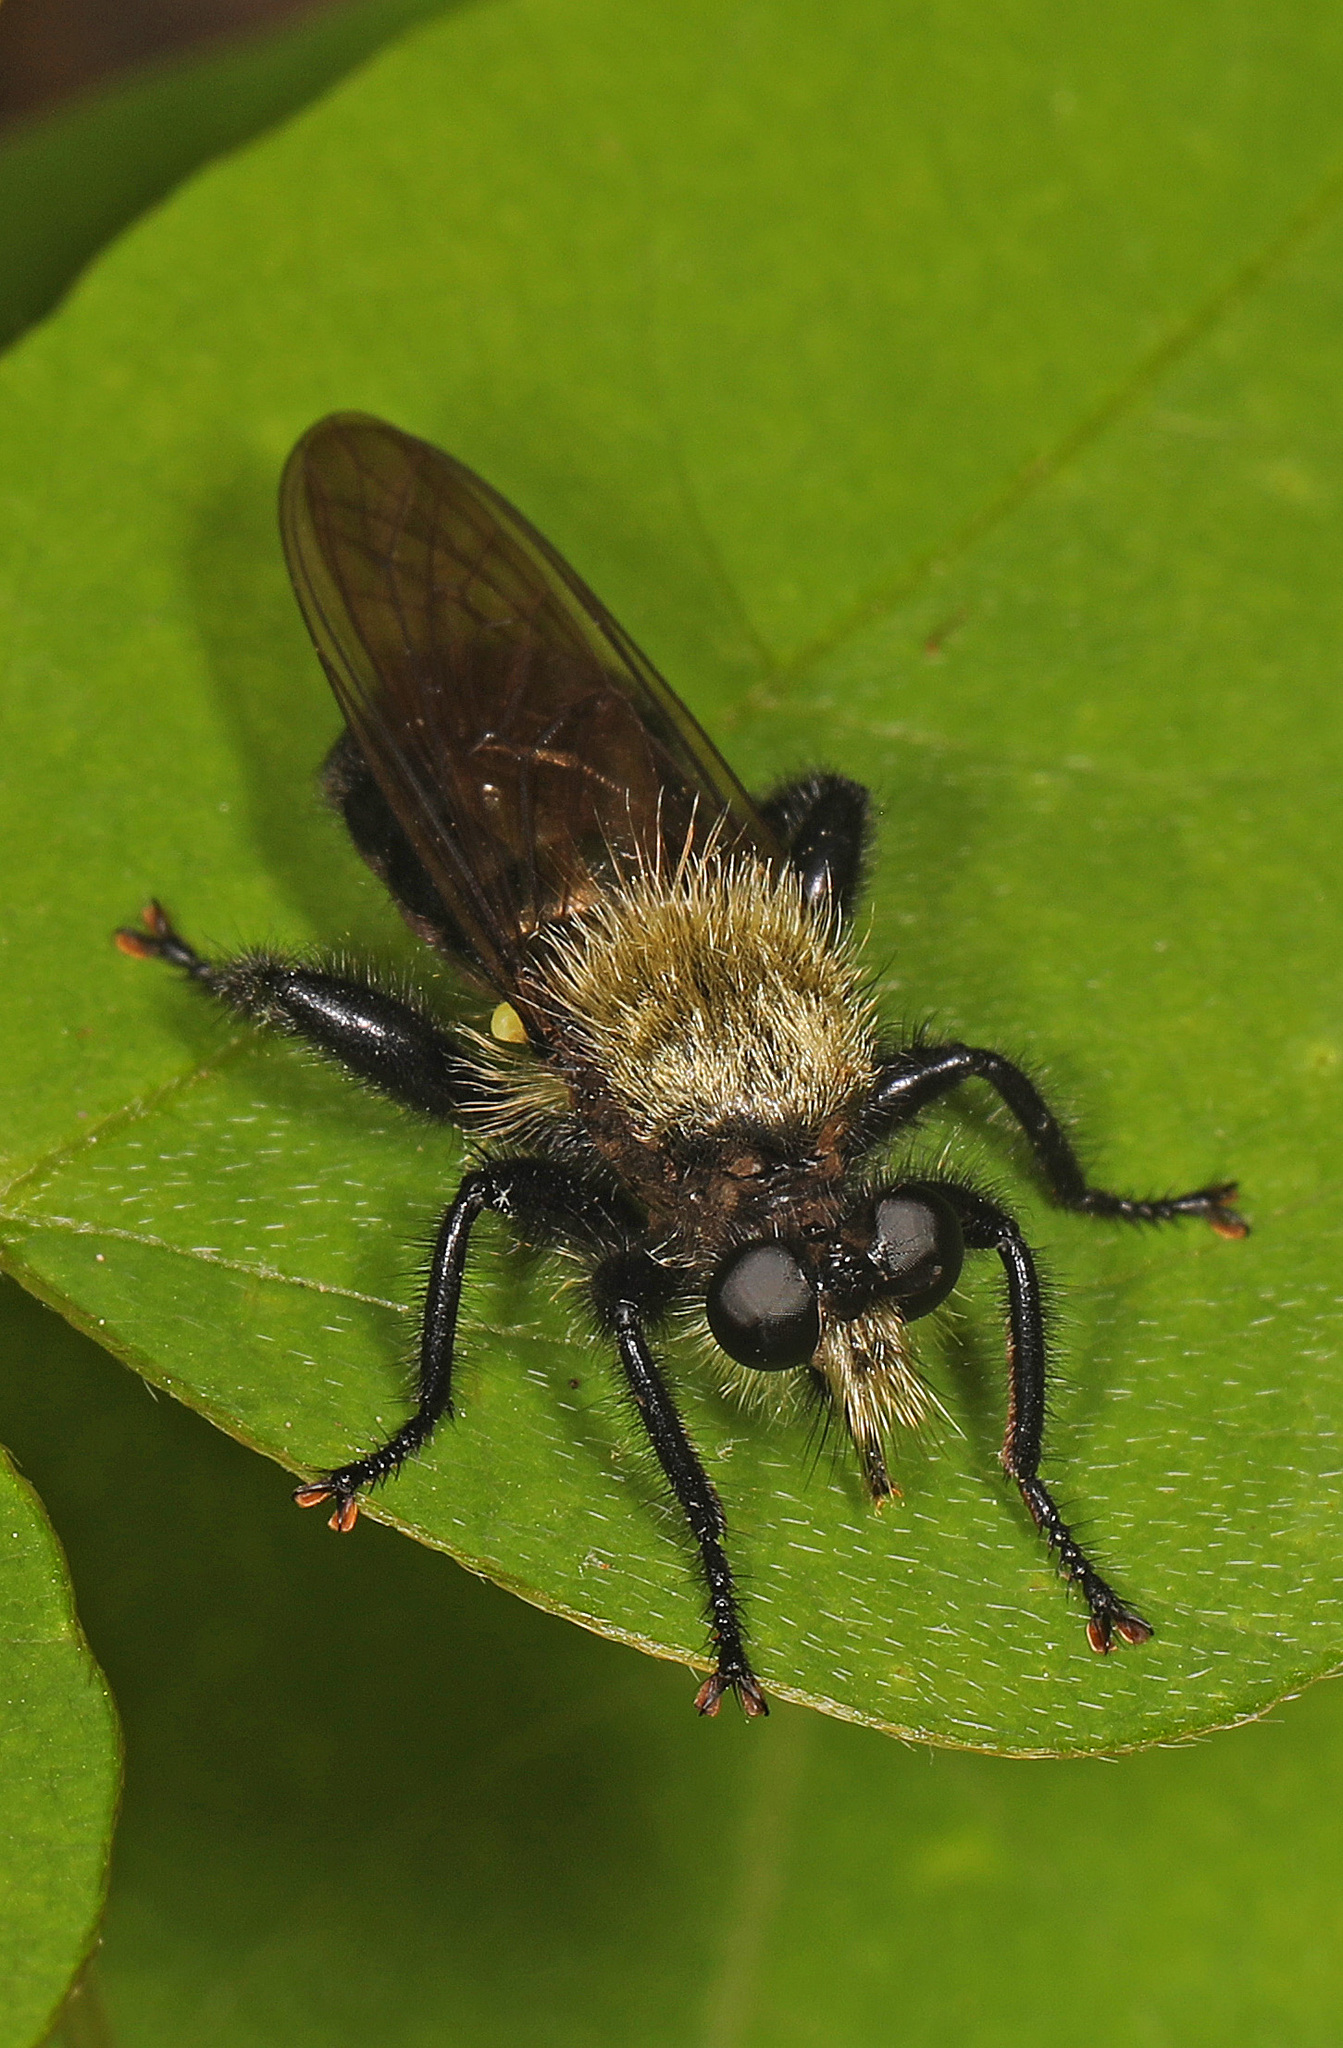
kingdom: Animalia
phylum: Arthropoda
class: Insecta
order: Diptera
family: Asilidae
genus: Laphria
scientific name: Laphria flavicollis
